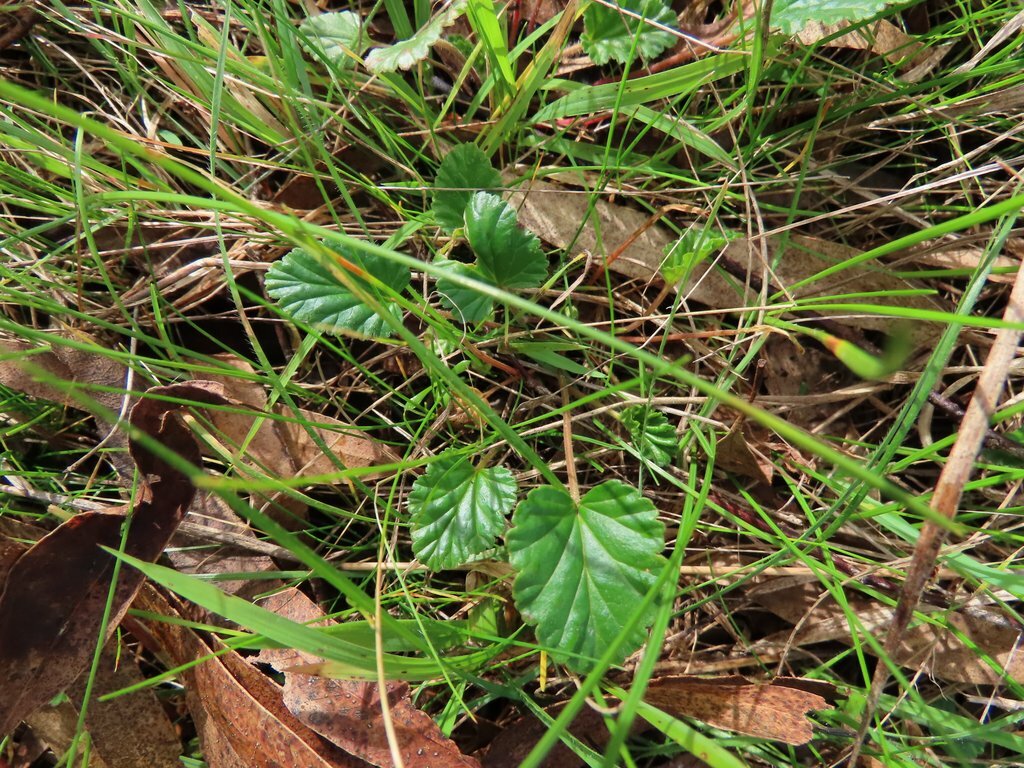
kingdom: Plantae
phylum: Tracheophyta
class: Magnoliopsida
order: Geraniales
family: Geraniaceae
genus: Pelargonium
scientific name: Pelargonium rodneyanum
